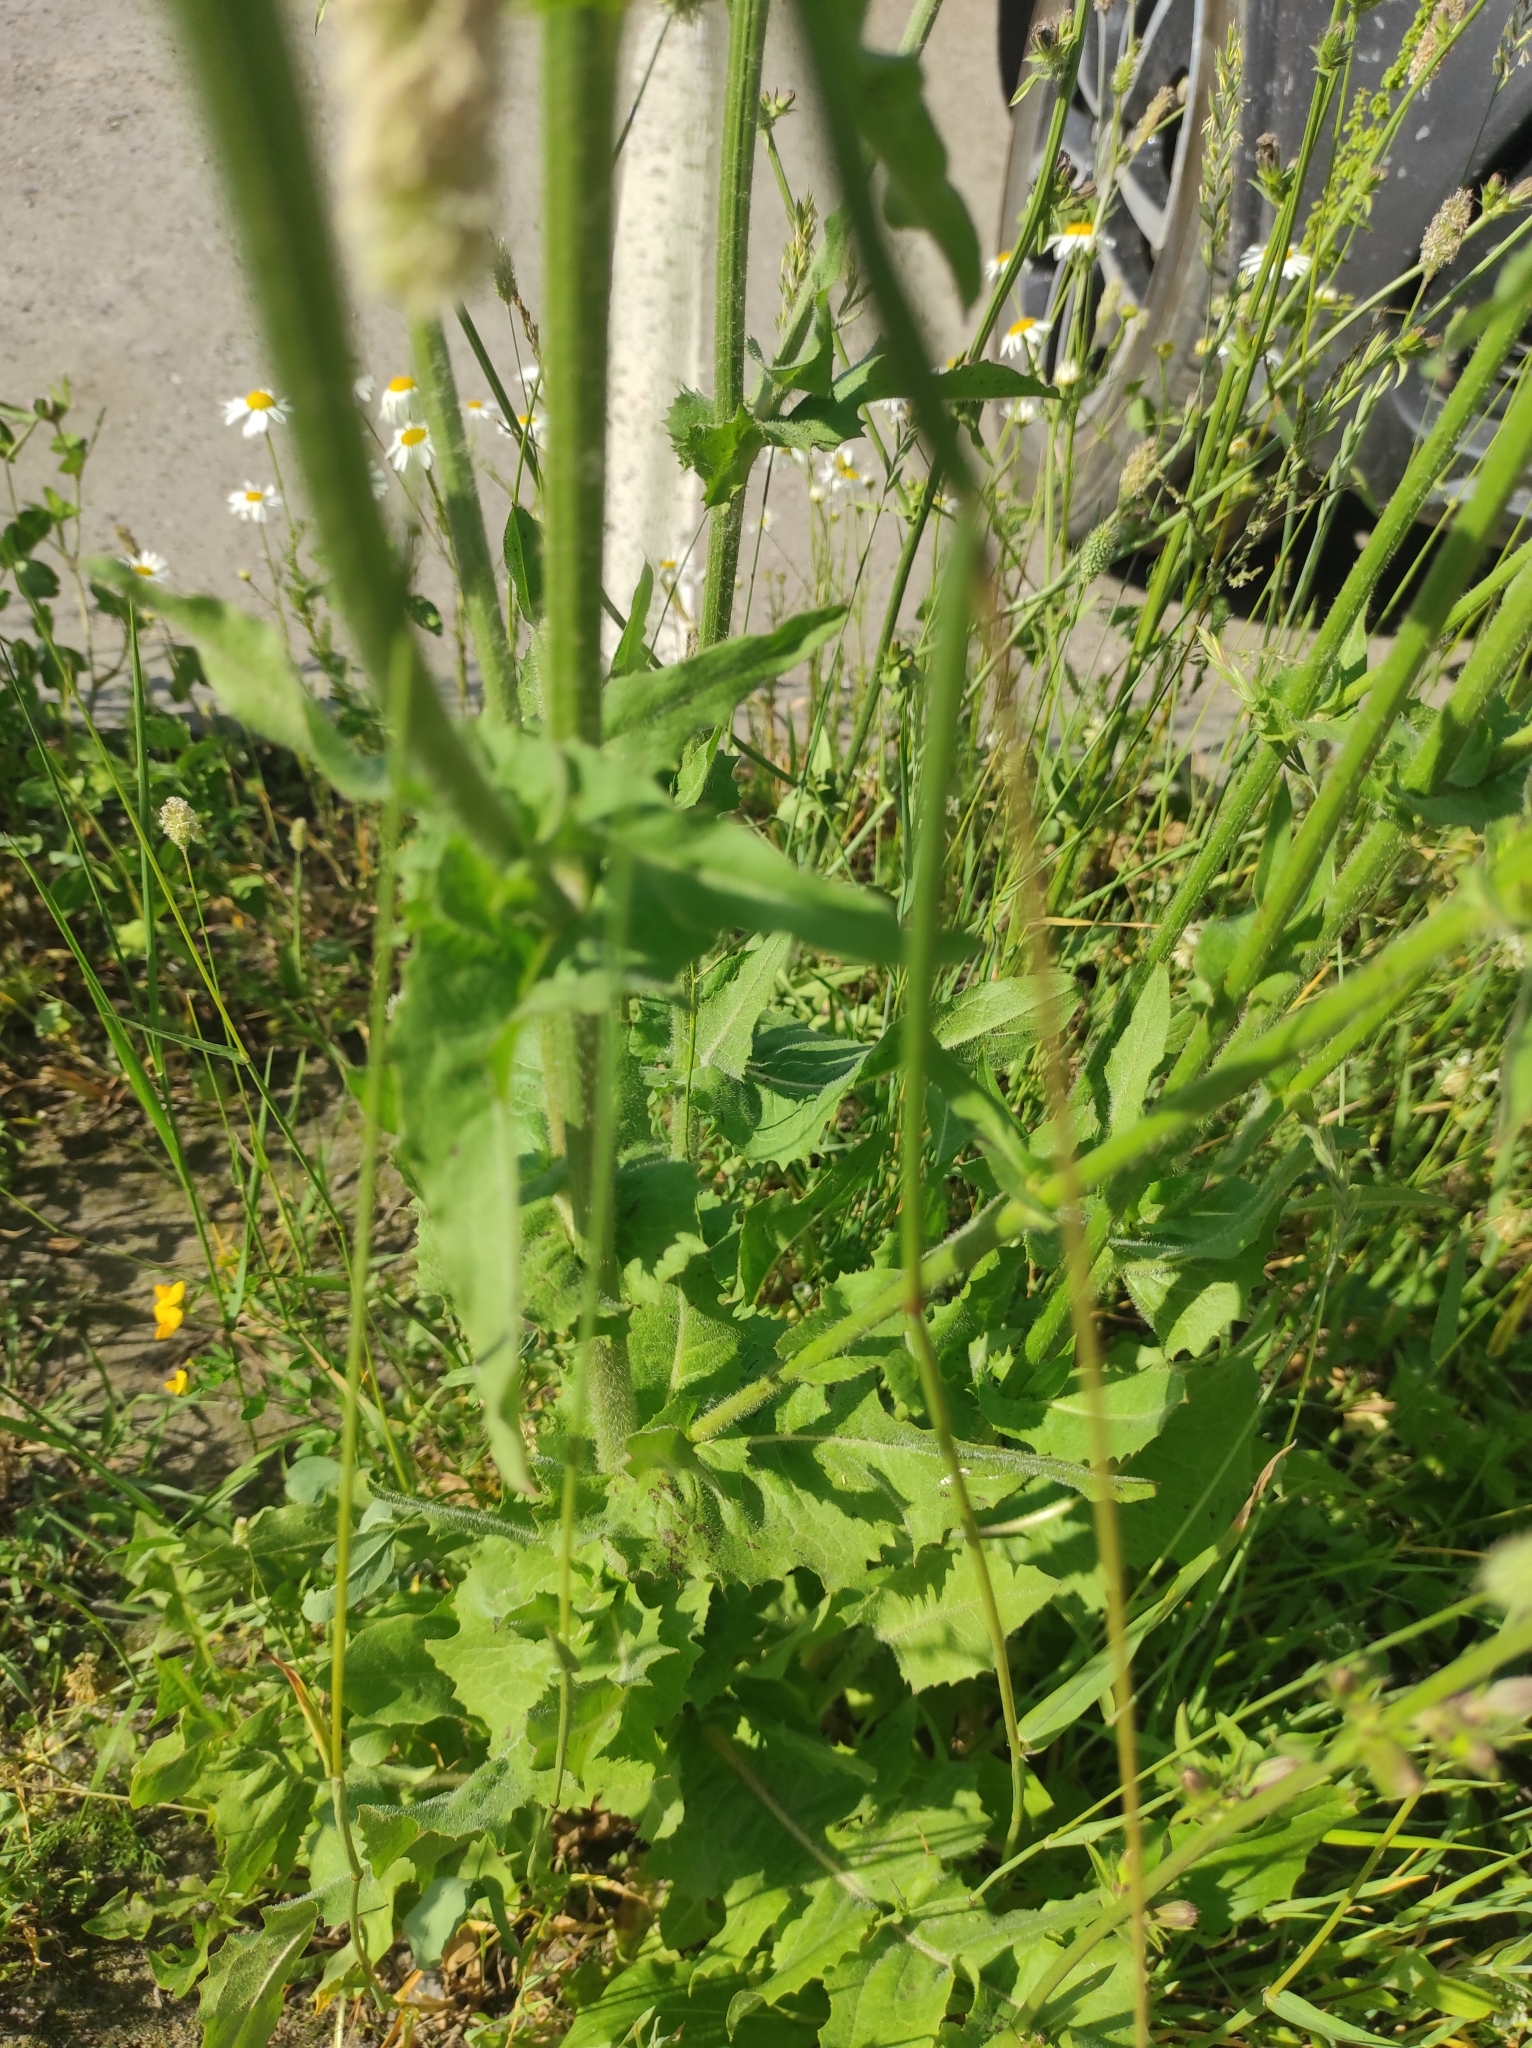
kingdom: Plantae
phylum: Tracheophyta
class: Magnoliopsida
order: Asterales
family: Asteraceae
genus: Cichorium
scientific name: Cichorium intybus
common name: Chicory
